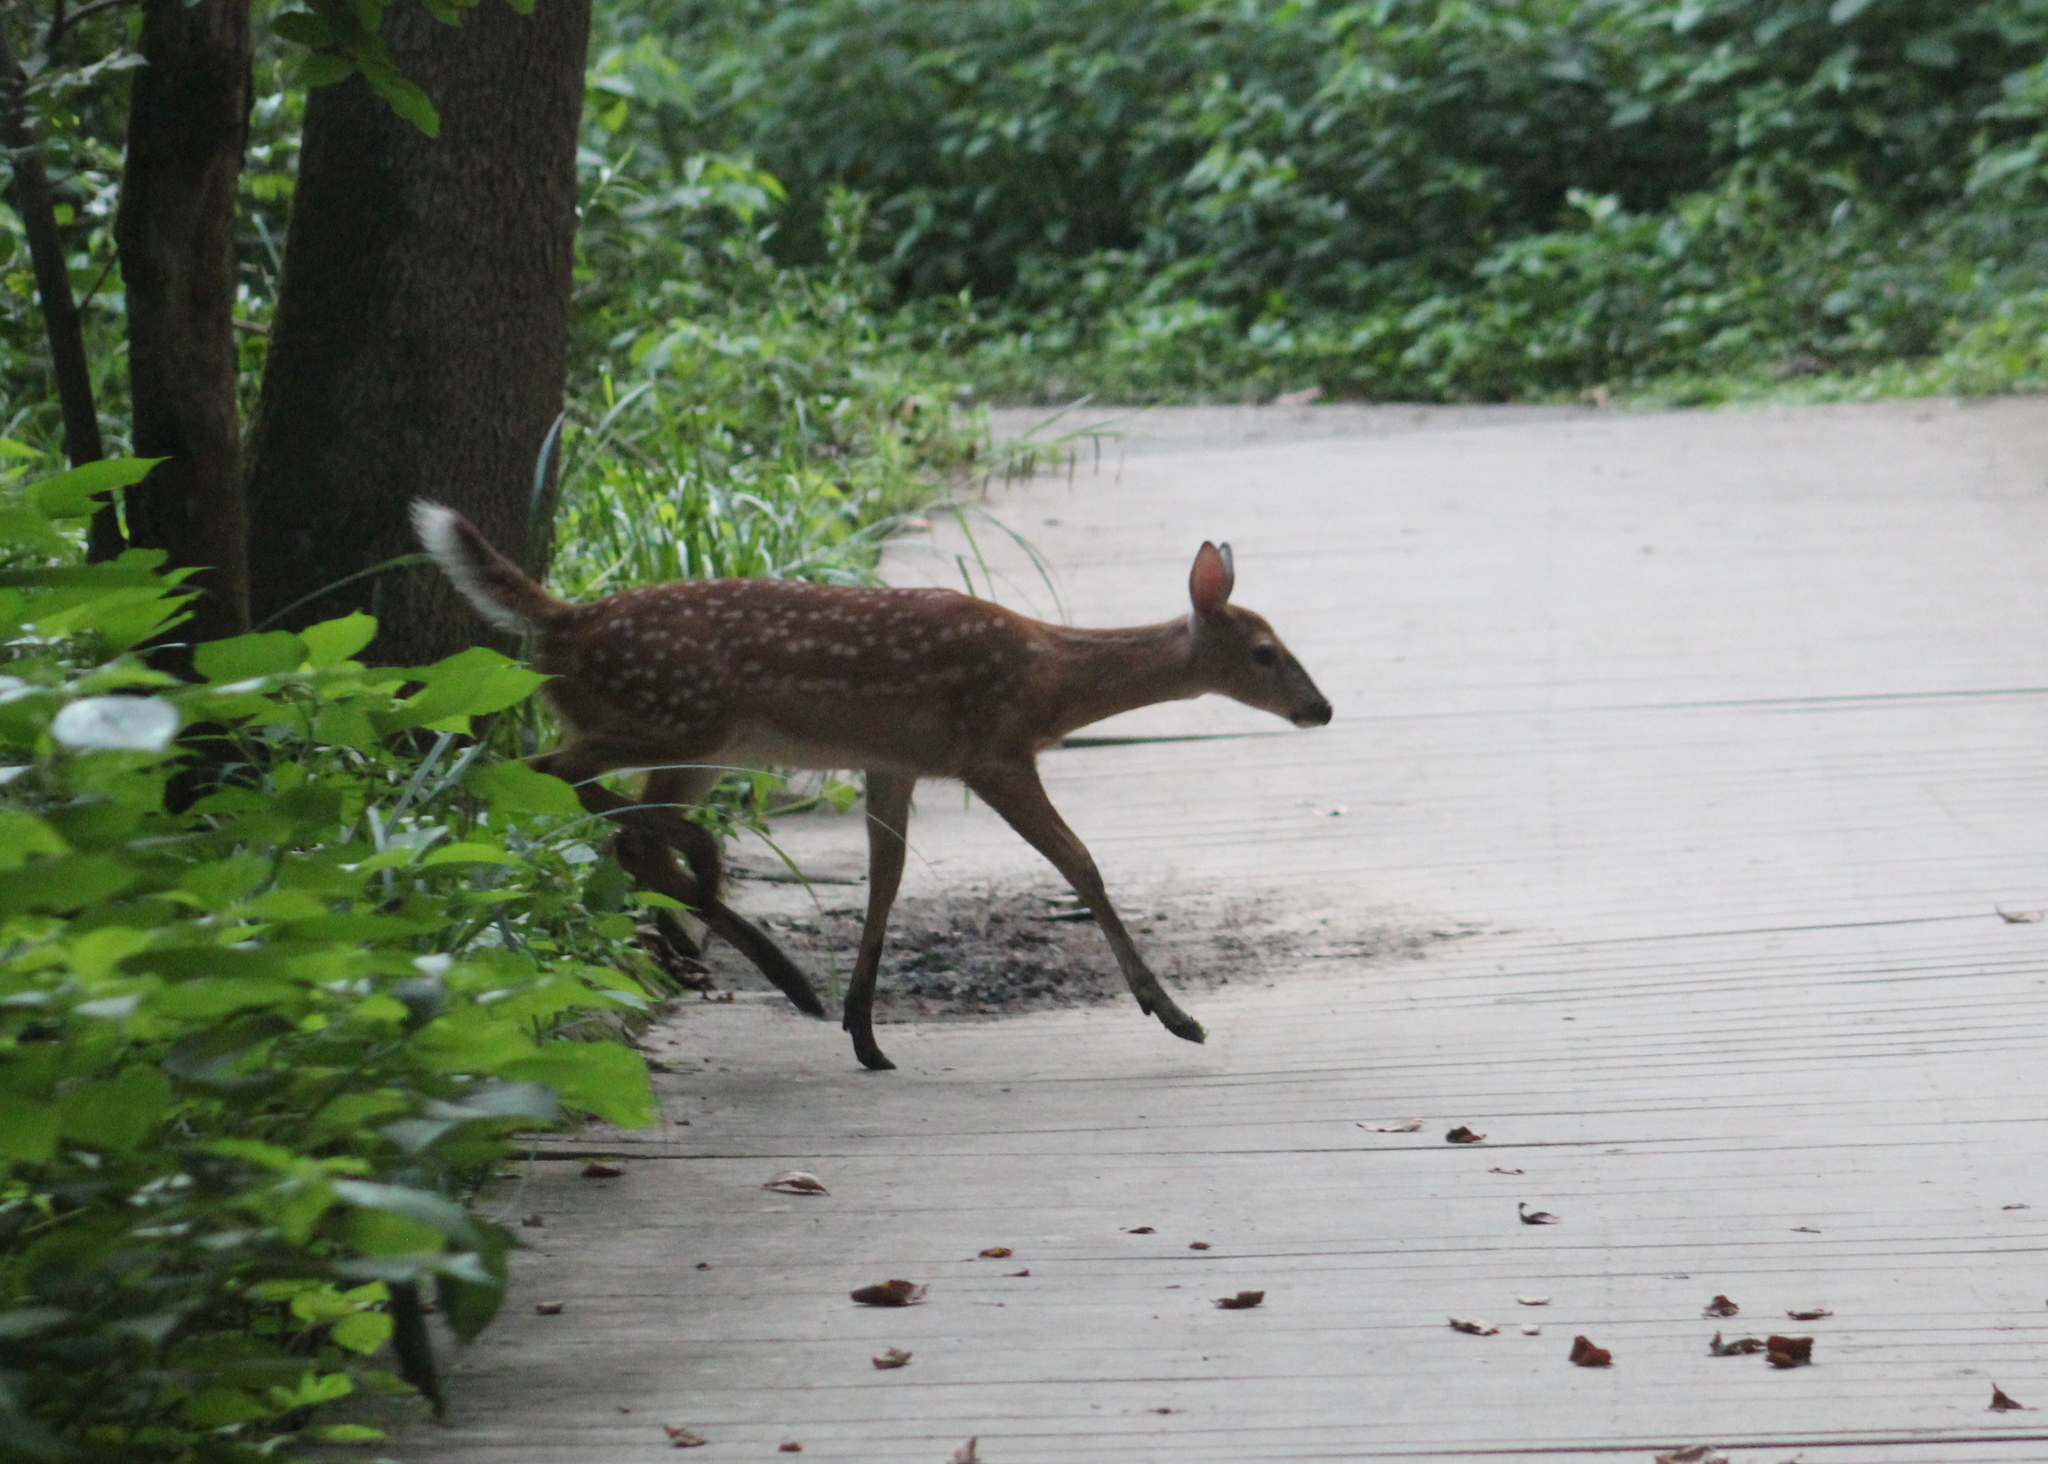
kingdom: Animalia
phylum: Chordata
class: Mammalia
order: Artiodactyla
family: Cervidae
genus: Odocoileus
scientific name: Odocoileus virginianus
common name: White-tailed deer
